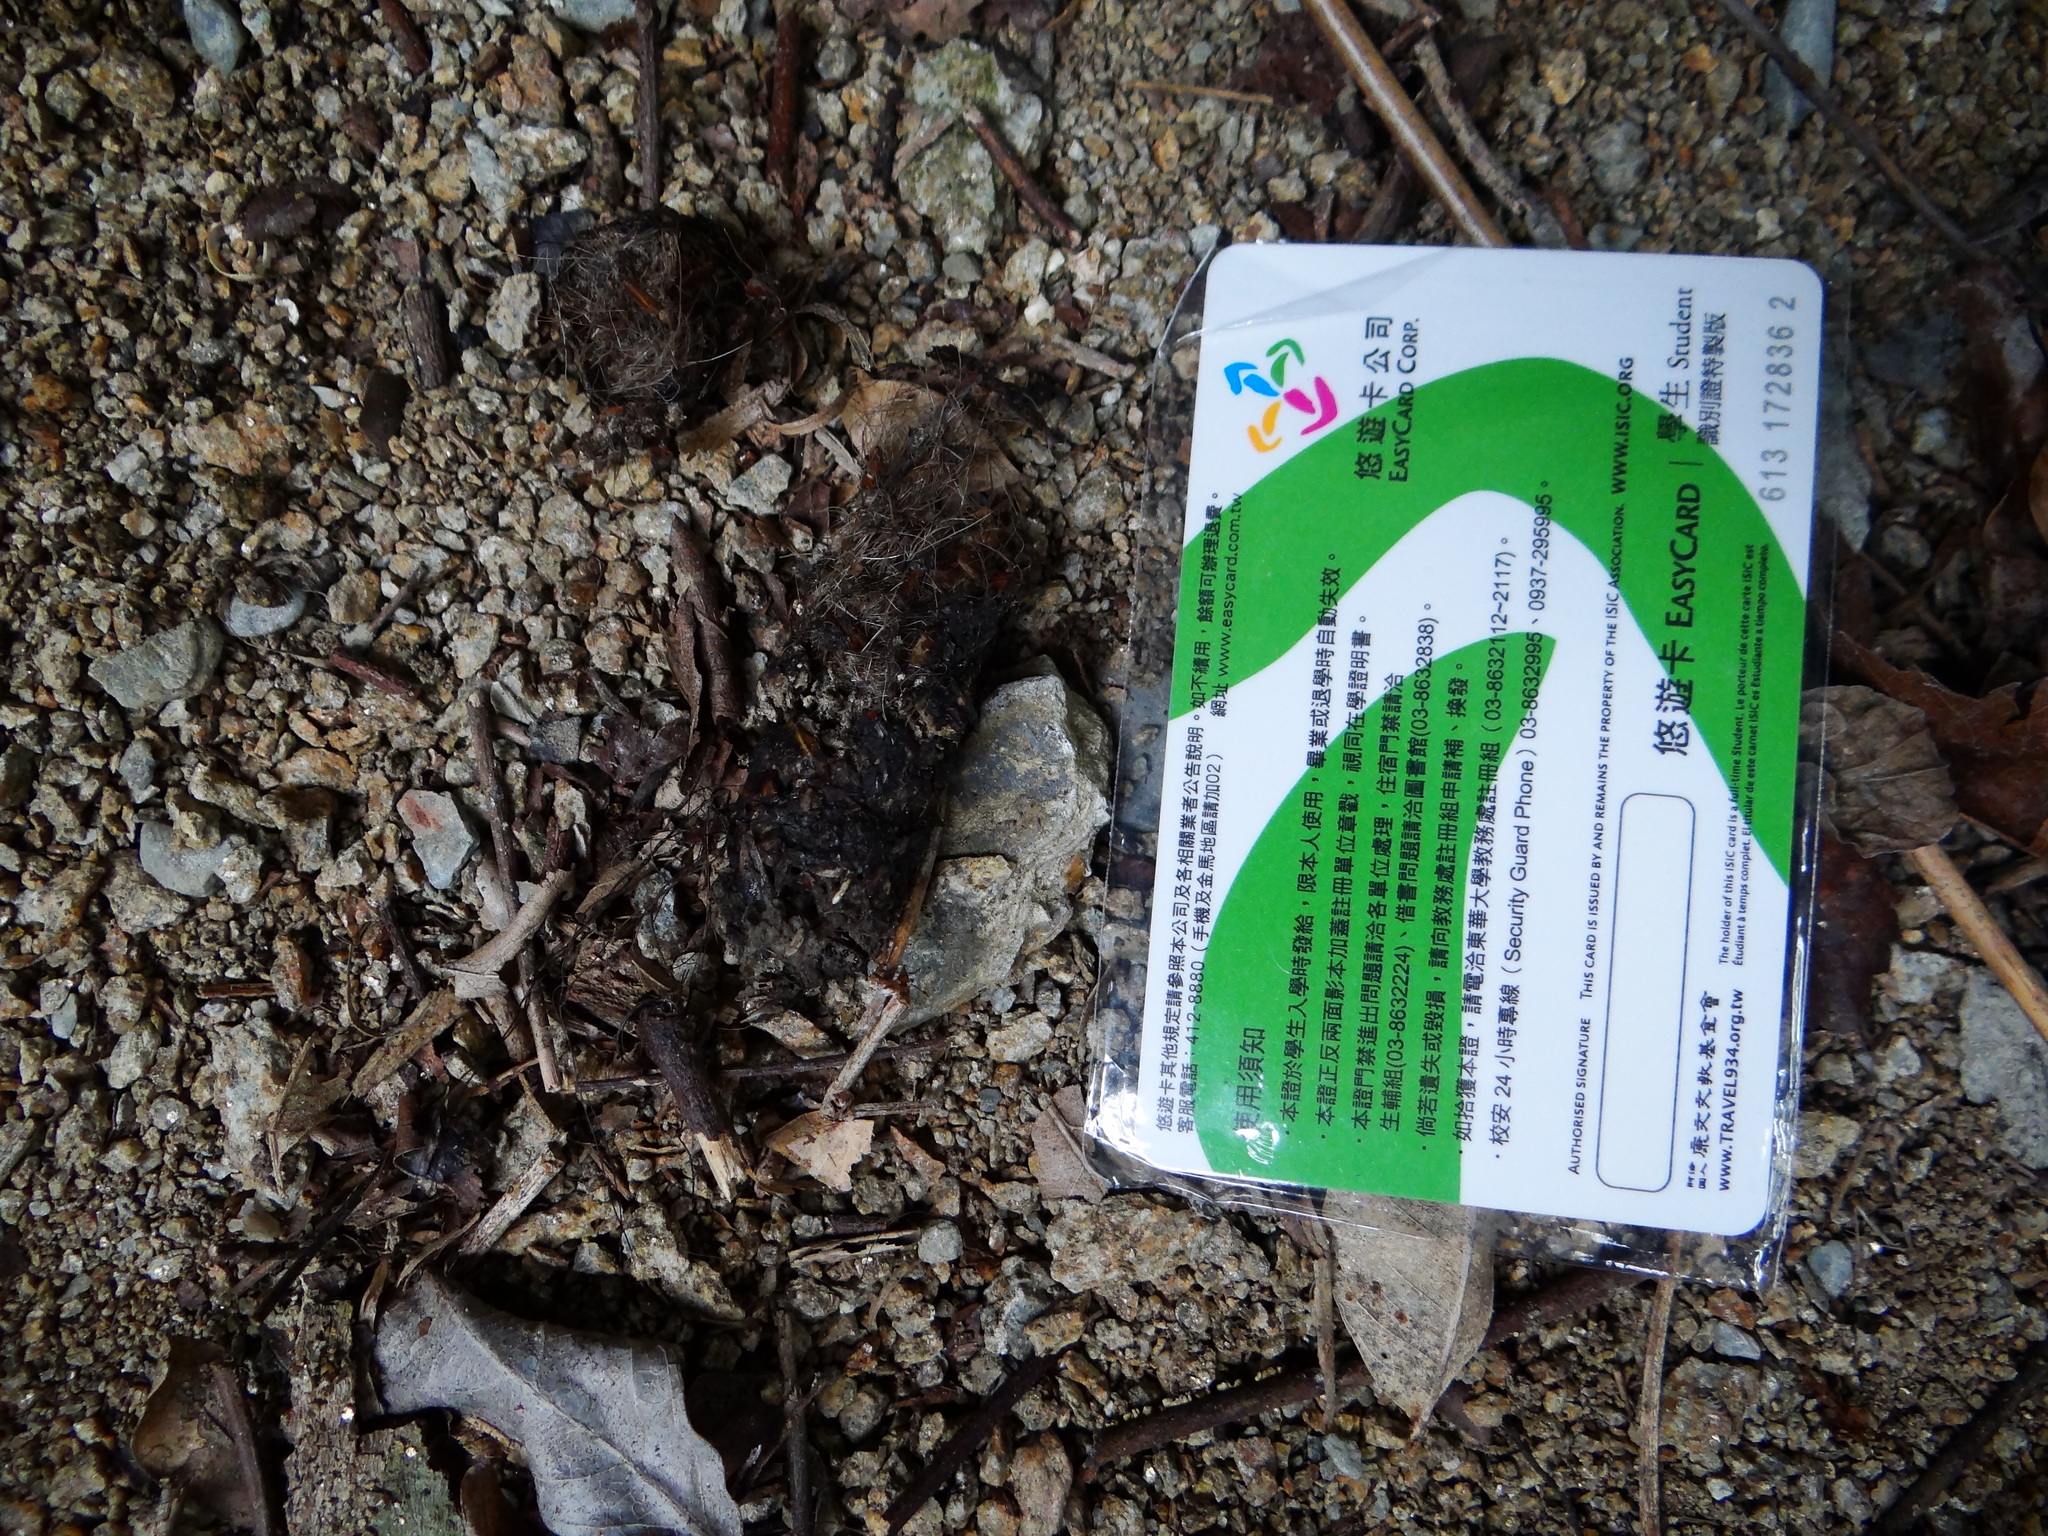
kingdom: Animalia
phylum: Chordata
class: Mammalia
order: Carnivora
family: Herpestidae
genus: Herpestes
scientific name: Herpestes urva
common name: Crab-eating mongoose
